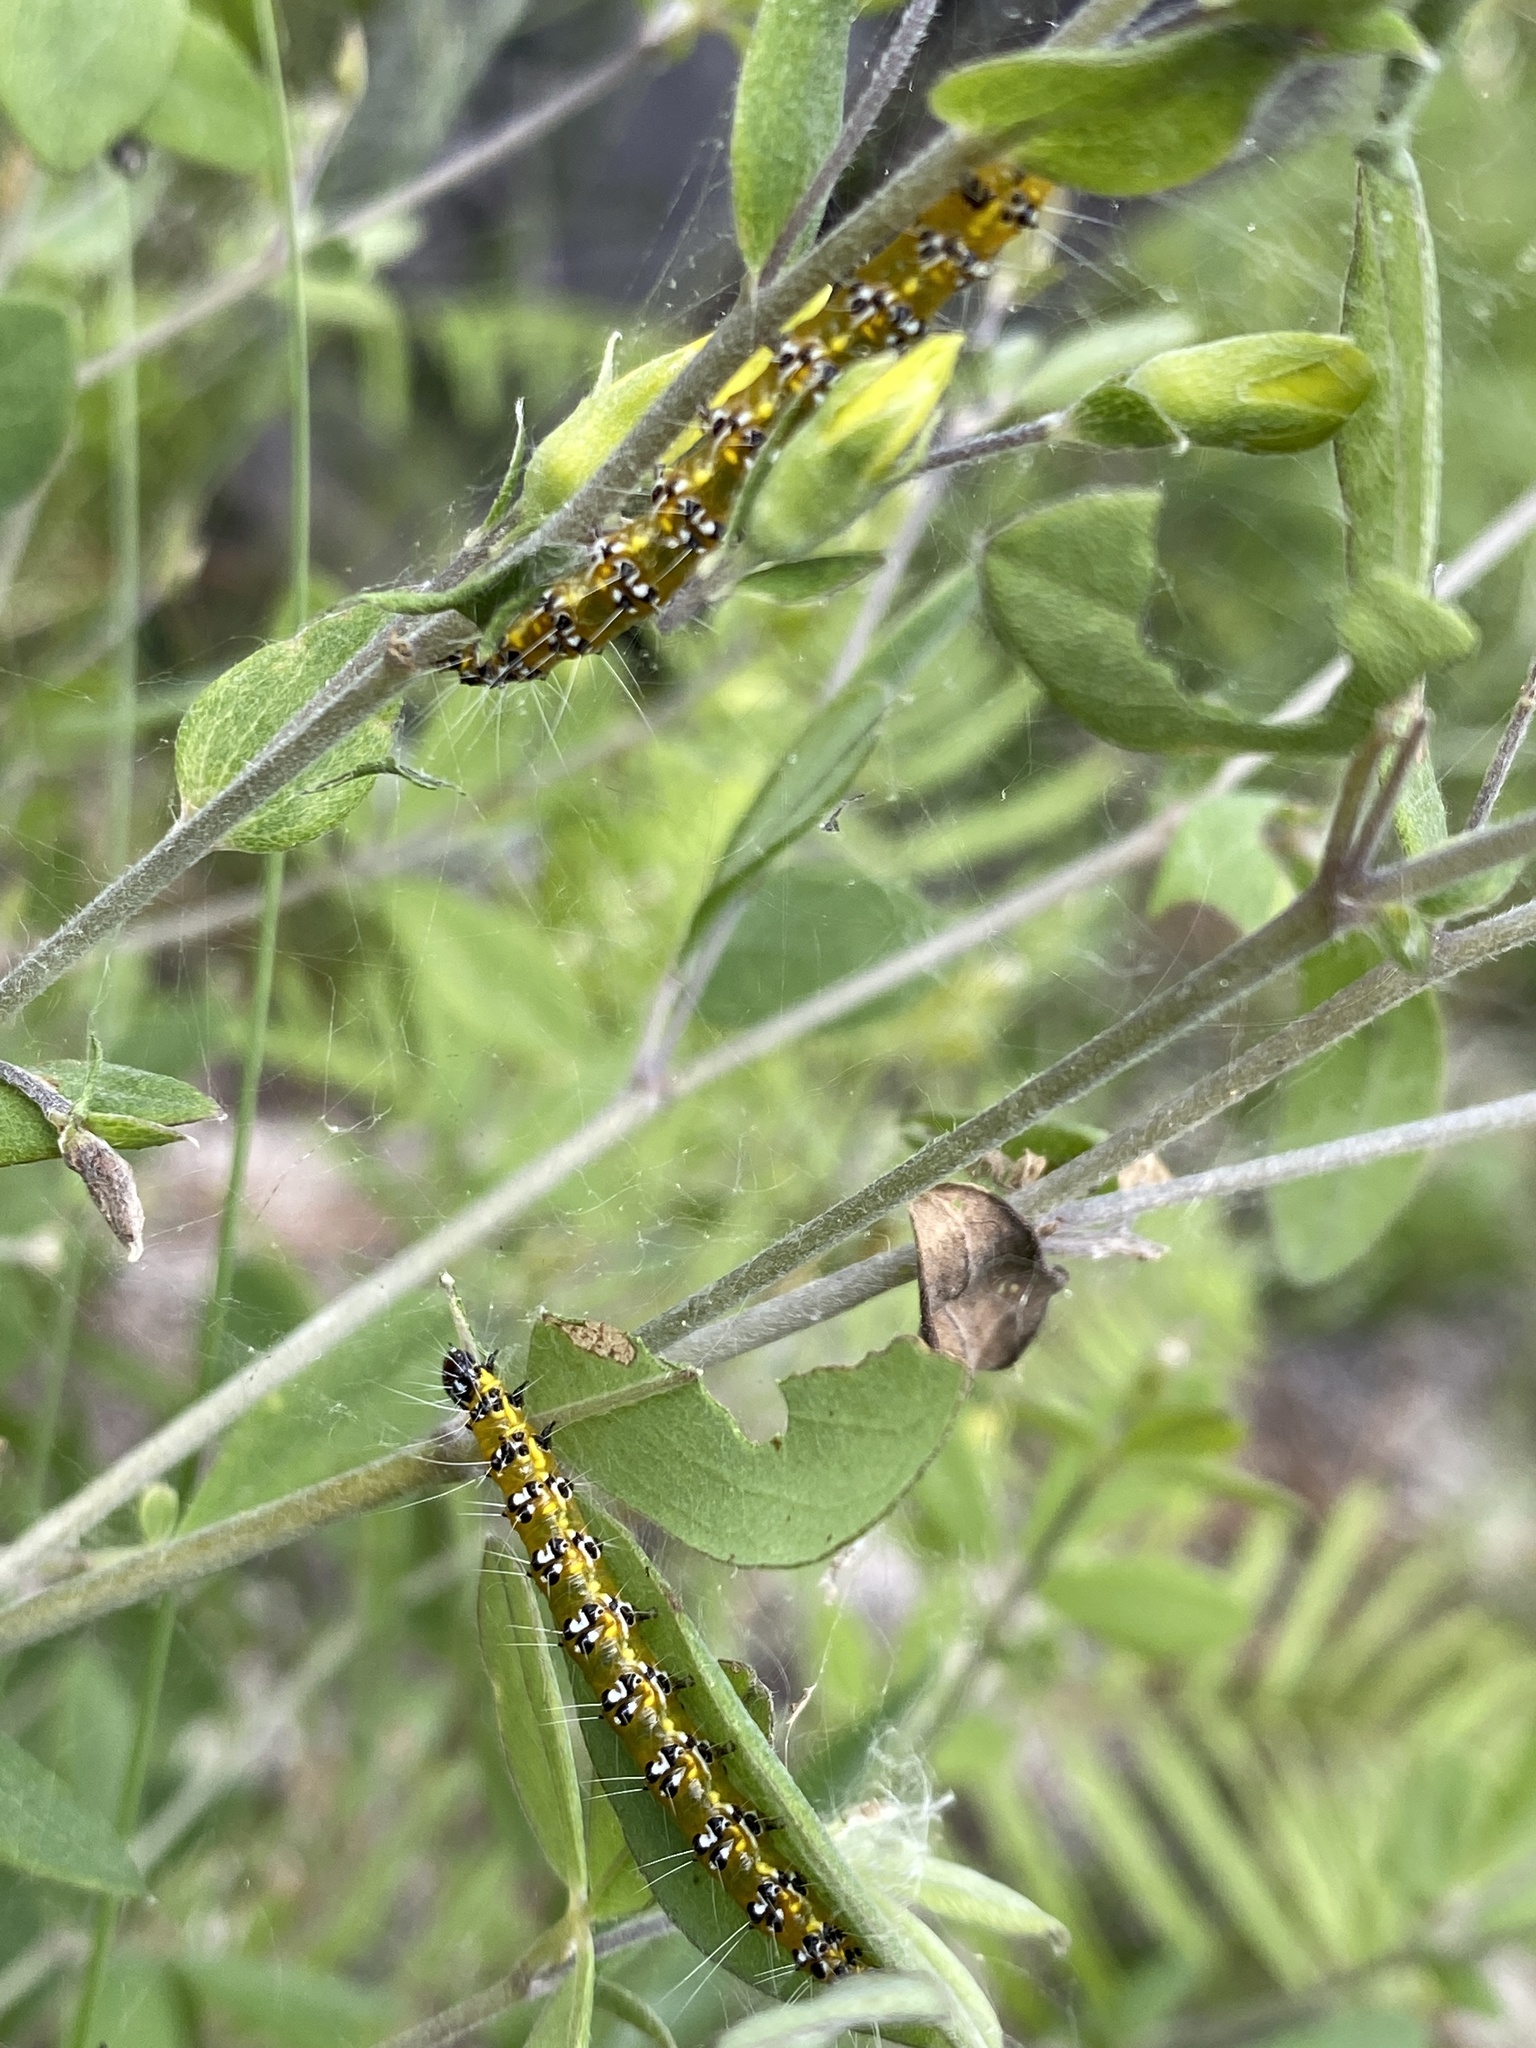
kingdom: Animalia
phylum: Arthropoda
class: Insecta
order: Lepidoptera
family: Crambidae
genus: Uresiphita
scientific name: Uresiphita reversalis
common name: Genista broom moth
